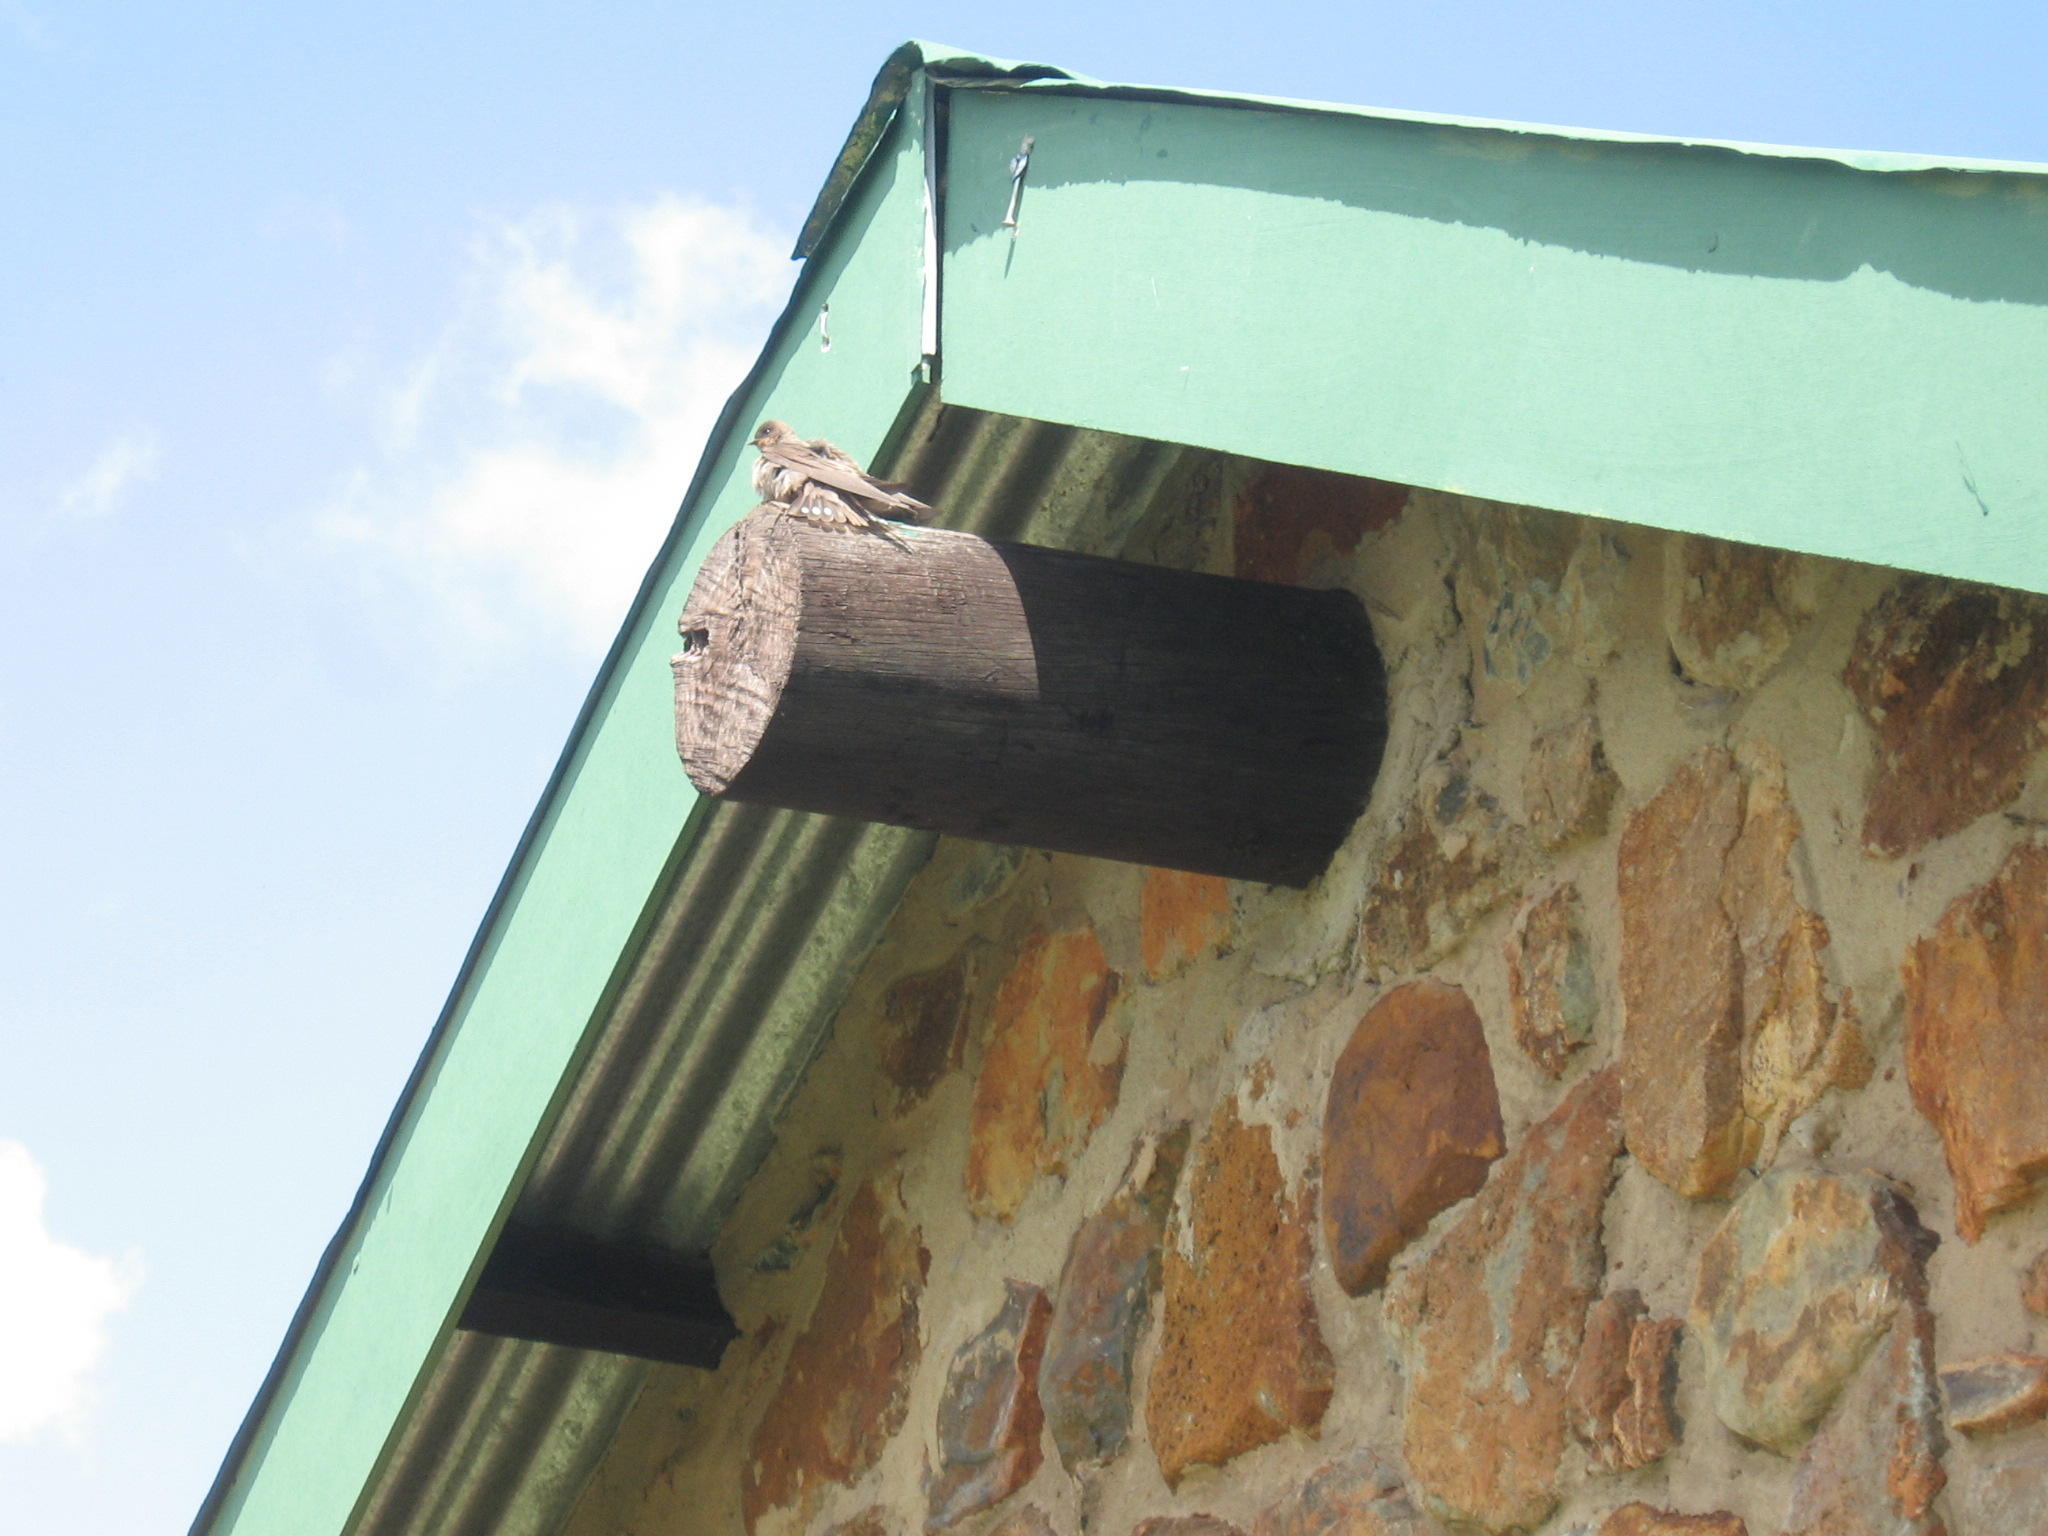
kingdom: Animalia
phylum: Chordata
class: Aves
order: Passeriformes
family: Hirundinidae
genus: Ptyonoprogne
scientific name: Ptyonoprogne fuligula
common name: Rock martin
